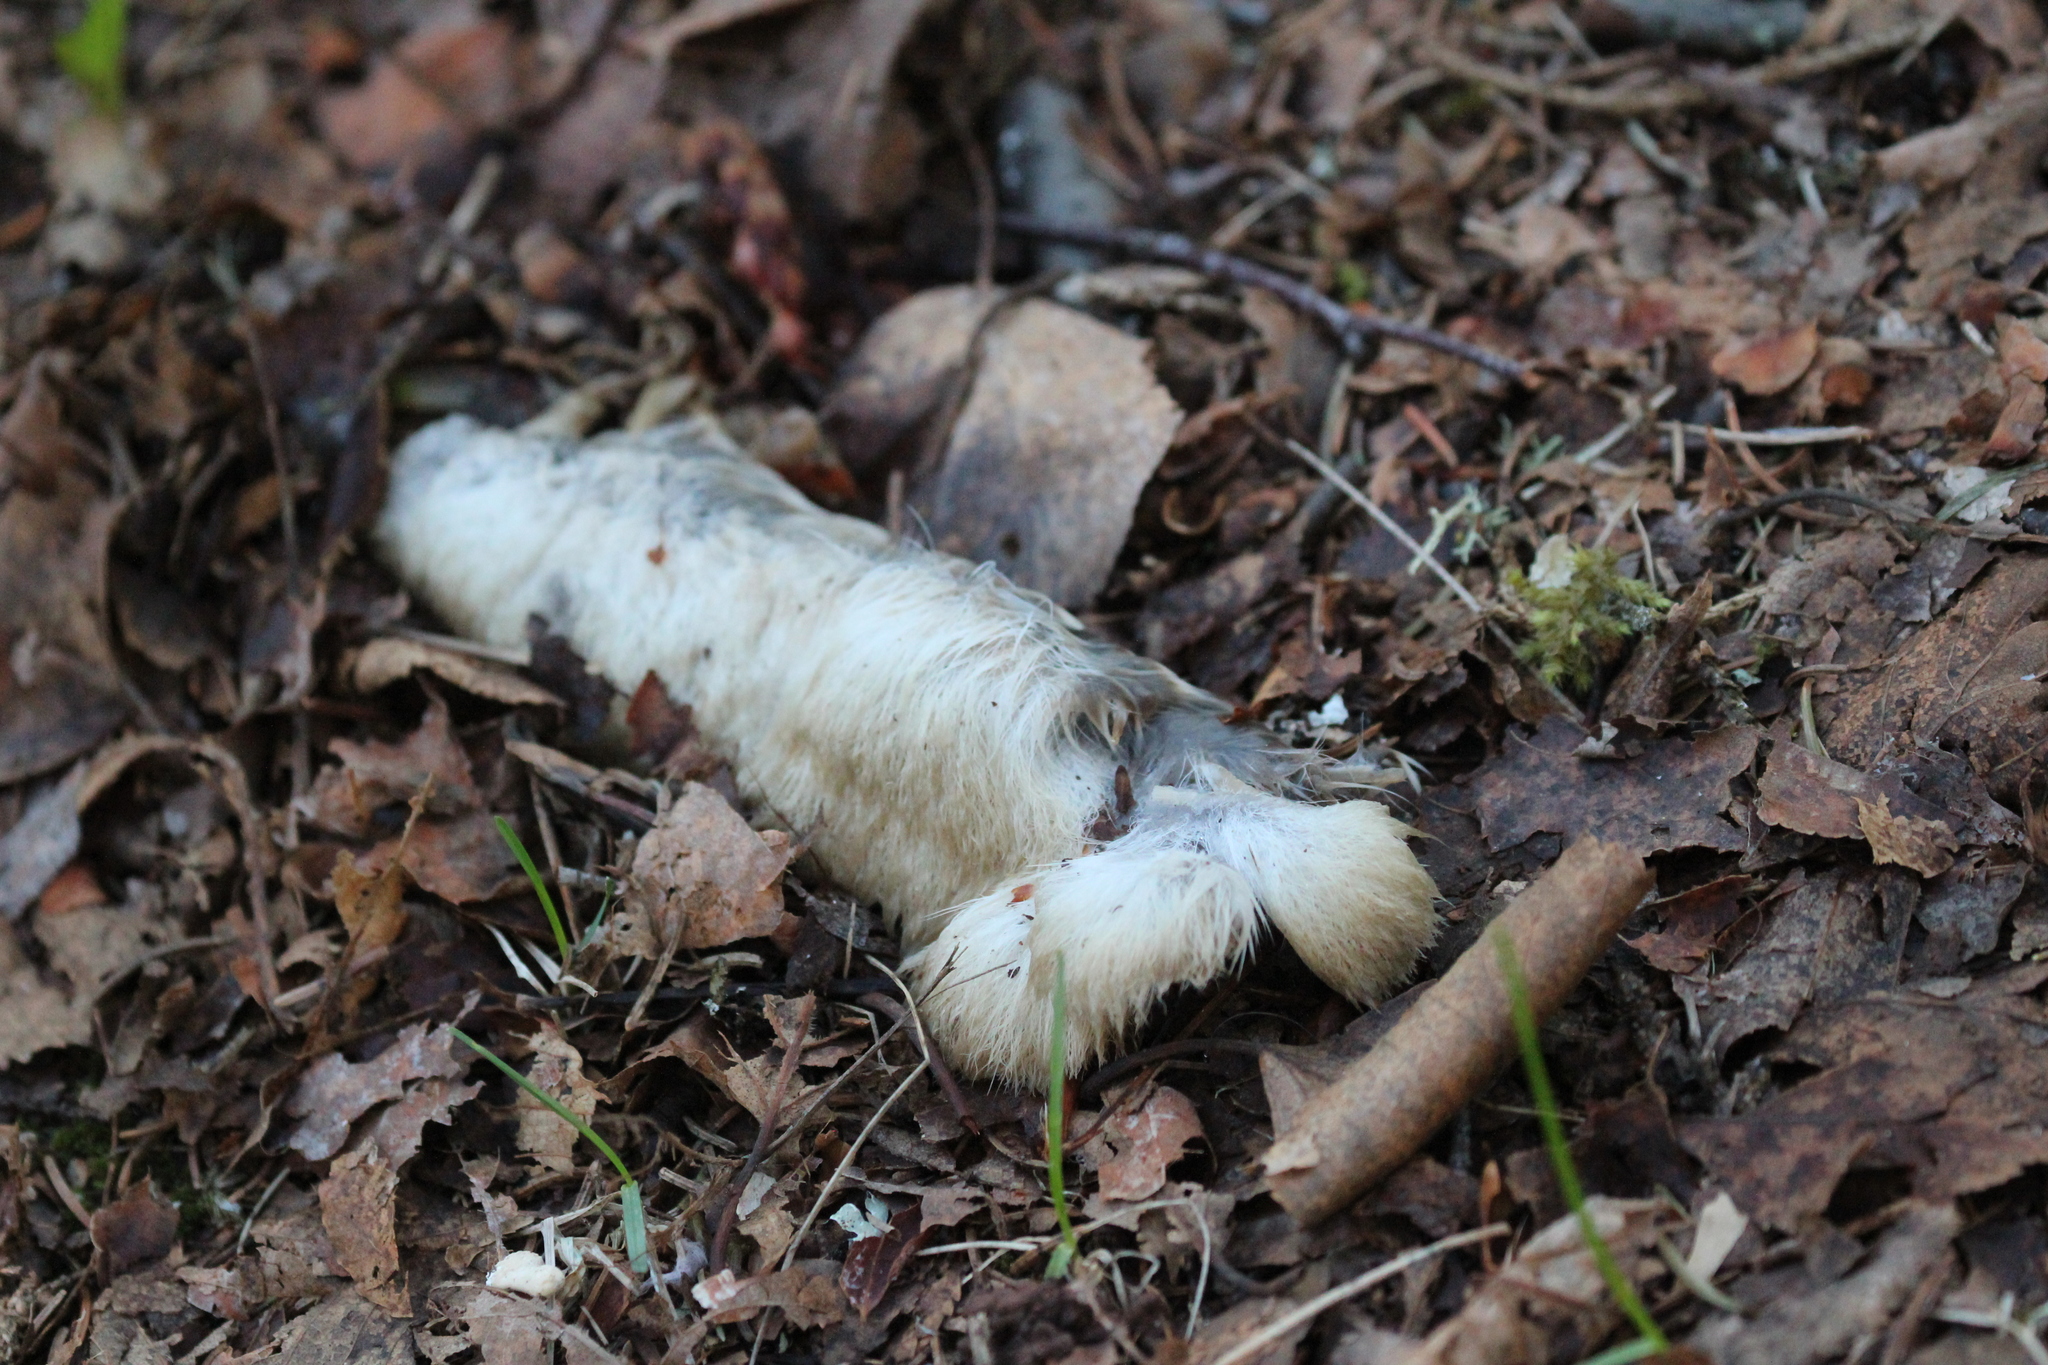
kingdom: Animalia
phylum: Chordata
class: Mammalia
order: Lagomorpha
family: Leporidae
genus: Lepus
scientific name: Lepus americanus
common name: Snowshoe hare
